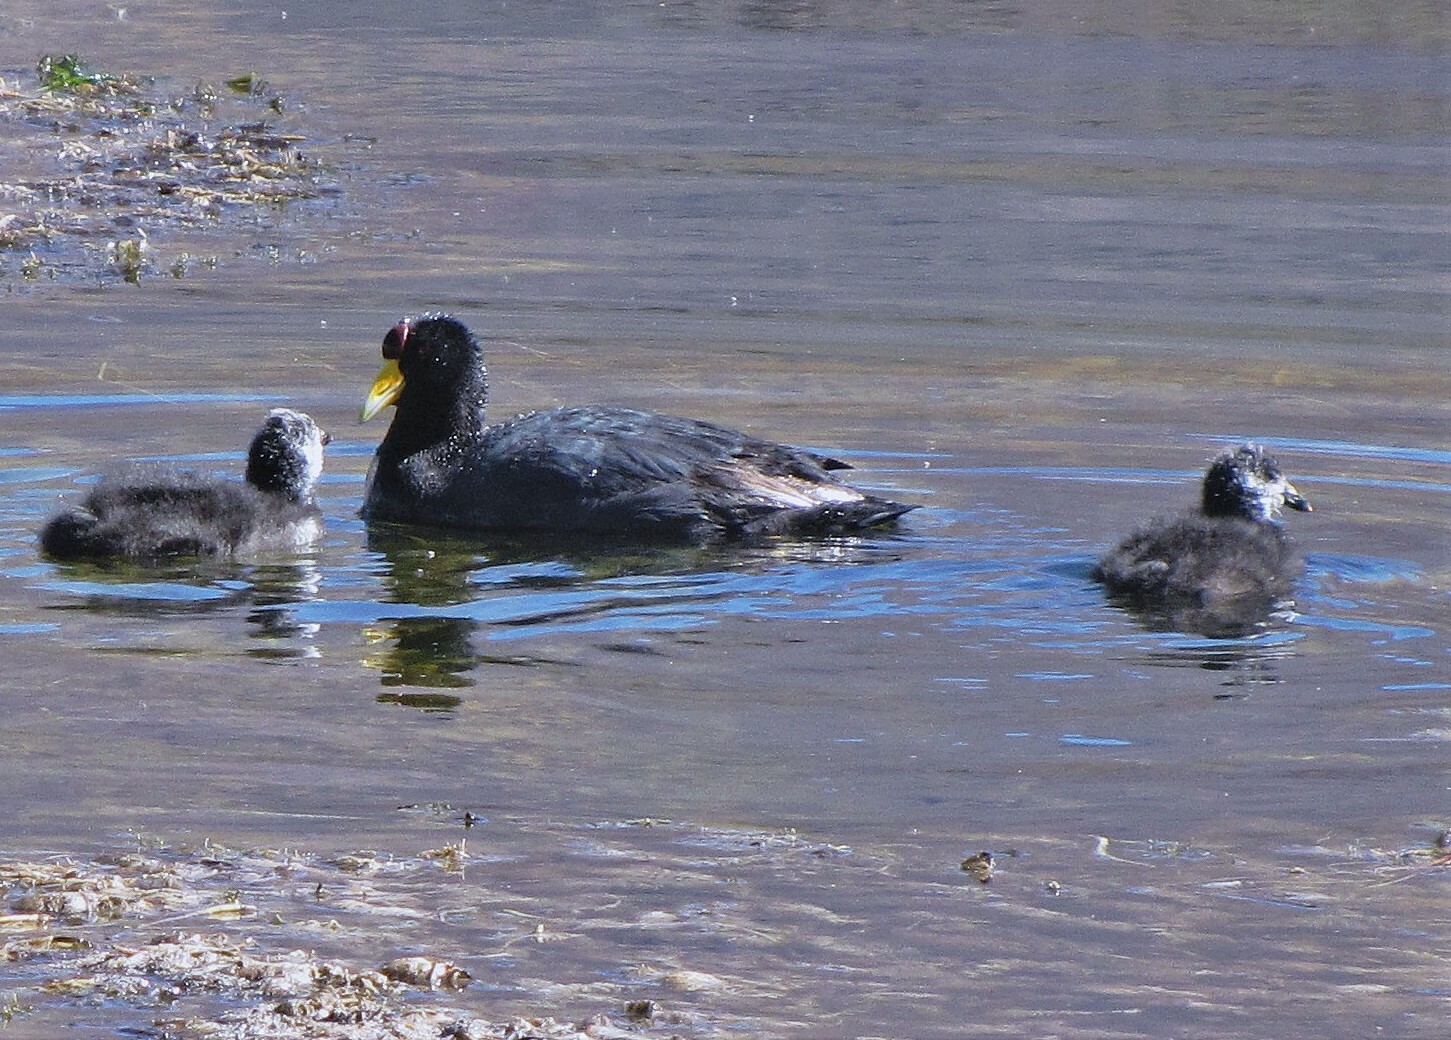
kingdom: Animalia
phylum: Chordata
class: Aves
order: Gruiformes
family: Rallidae
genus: Fulica
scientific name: Fulica ardesiaca
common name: Andean coot
